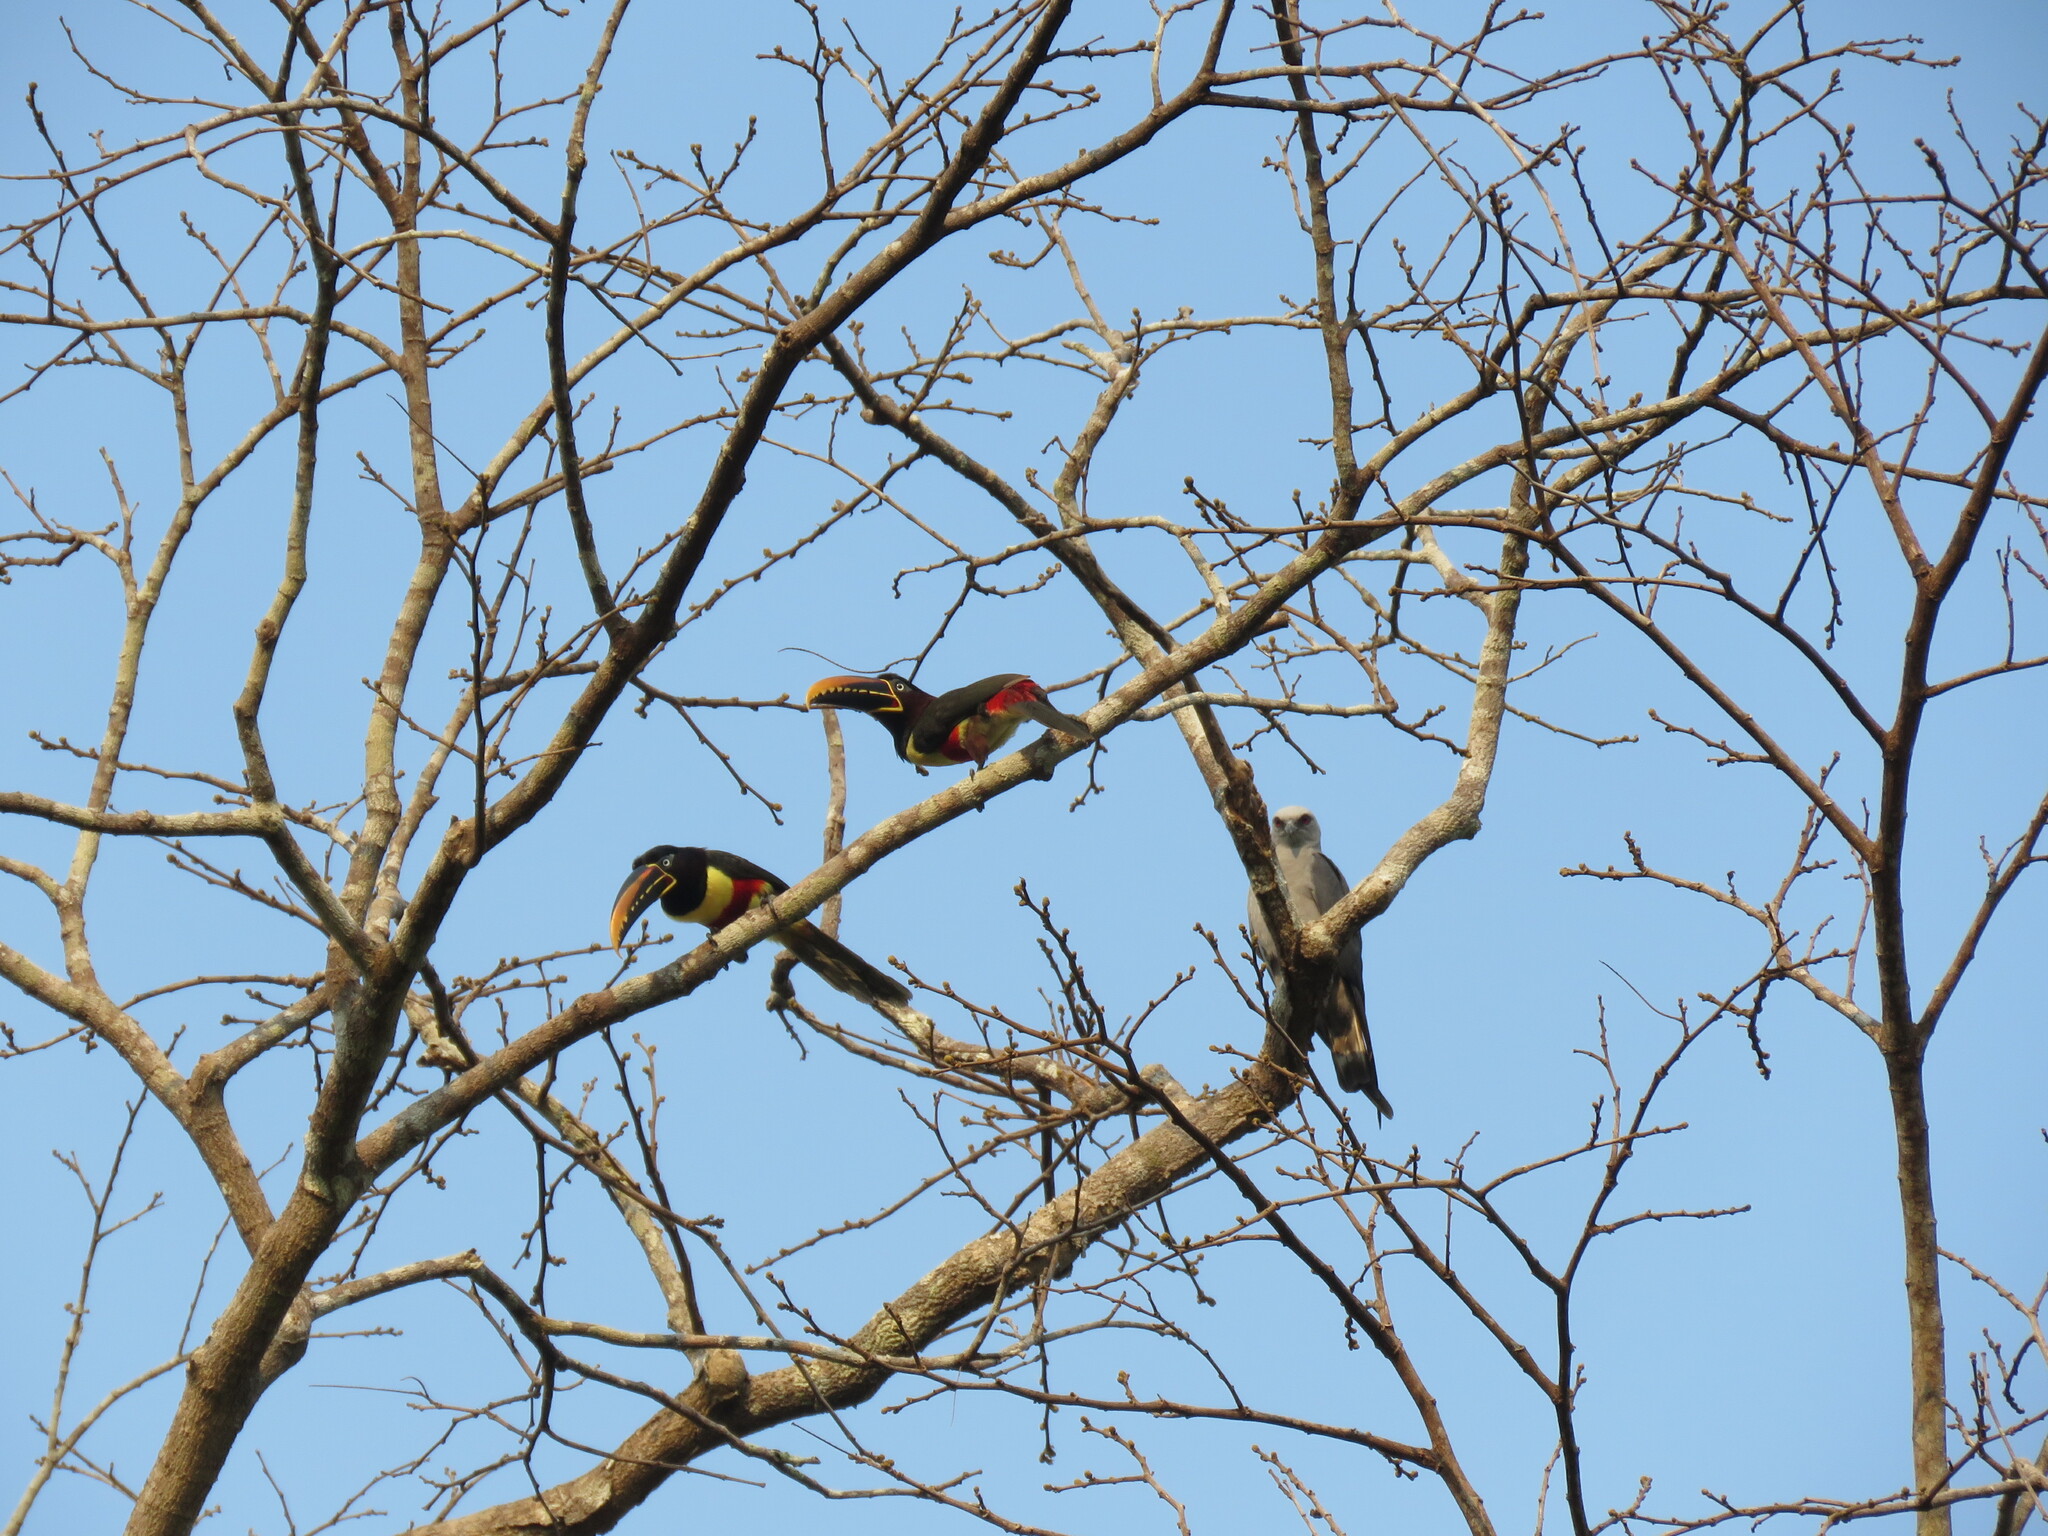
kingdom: Animalia
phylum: Chordata
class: Aves
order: Piciformes
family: Ramphastidae
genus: Pteroglossus
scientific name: Pteroglossus castanotis
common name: Chestnut-eared aracari
